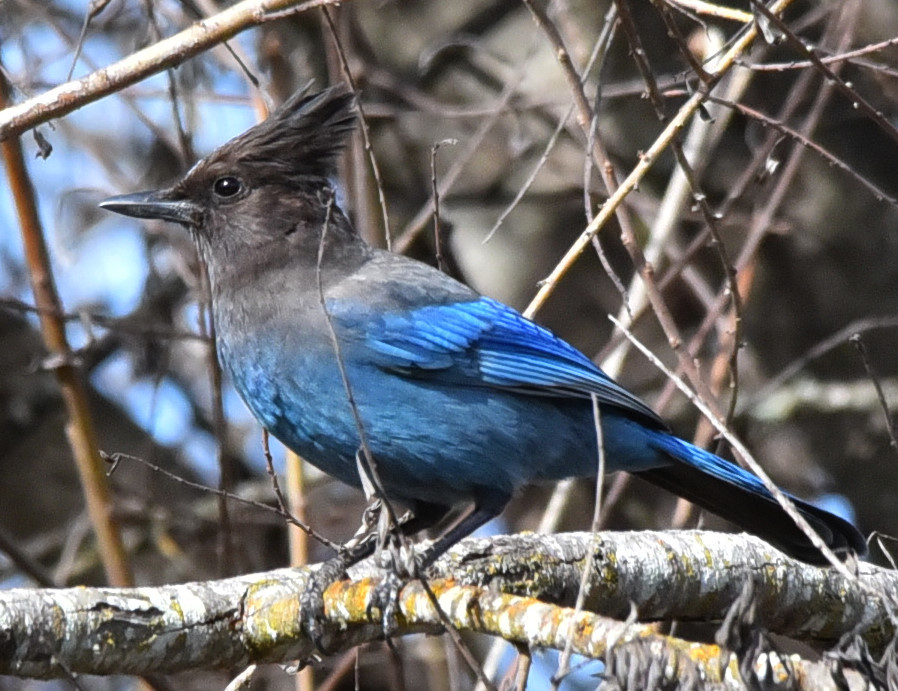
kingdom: Animalia
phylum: Chordata
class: Aves
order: Passeriformes
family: Corvidae
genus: Cyanocitta
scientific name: Cyanocitta stelleri
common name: Steller's jay
